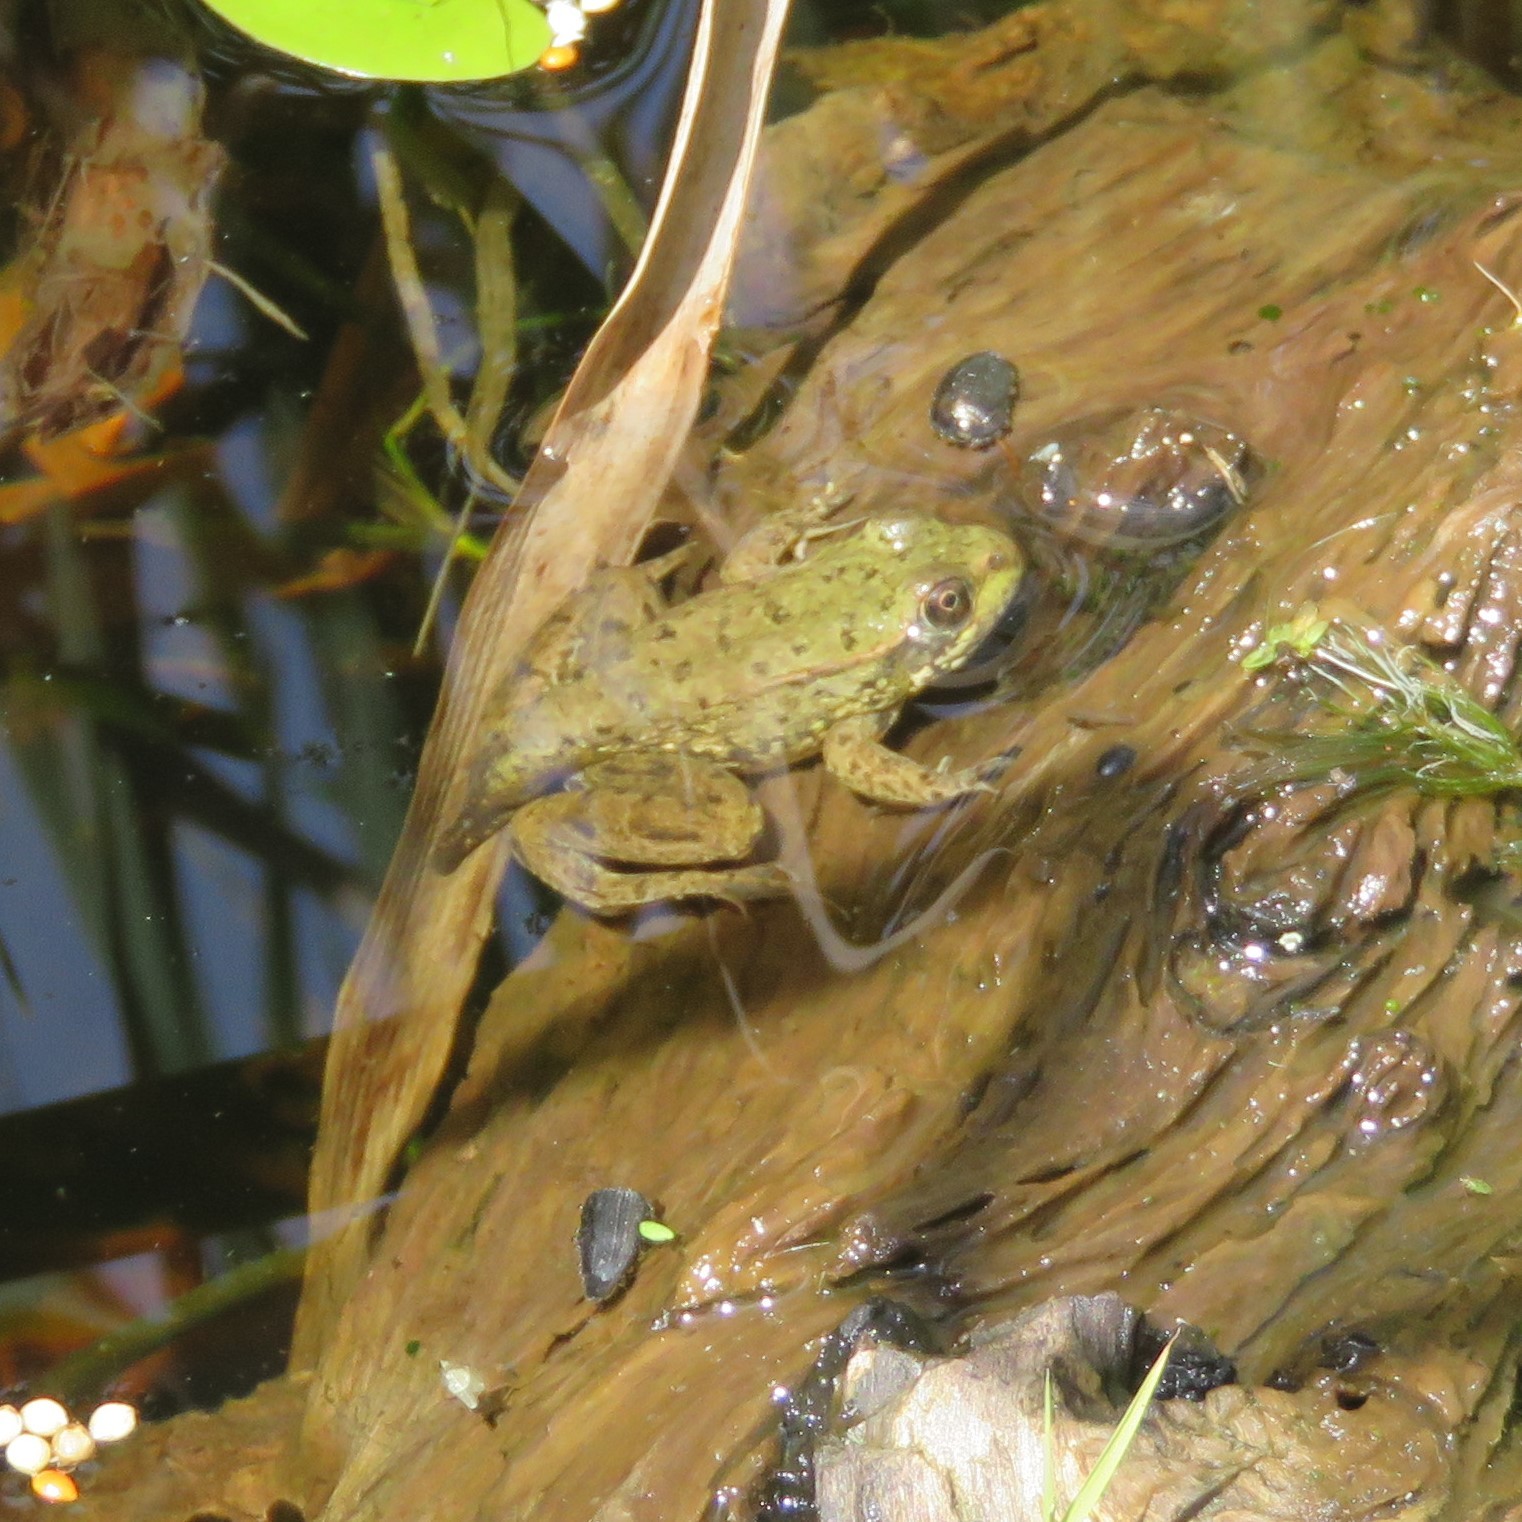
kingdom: Animalia
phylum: Chordata
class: Amphibia
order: Anura
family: Ranidae
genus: Lithobates
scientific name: Lithobates clamitans
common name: Green frog
